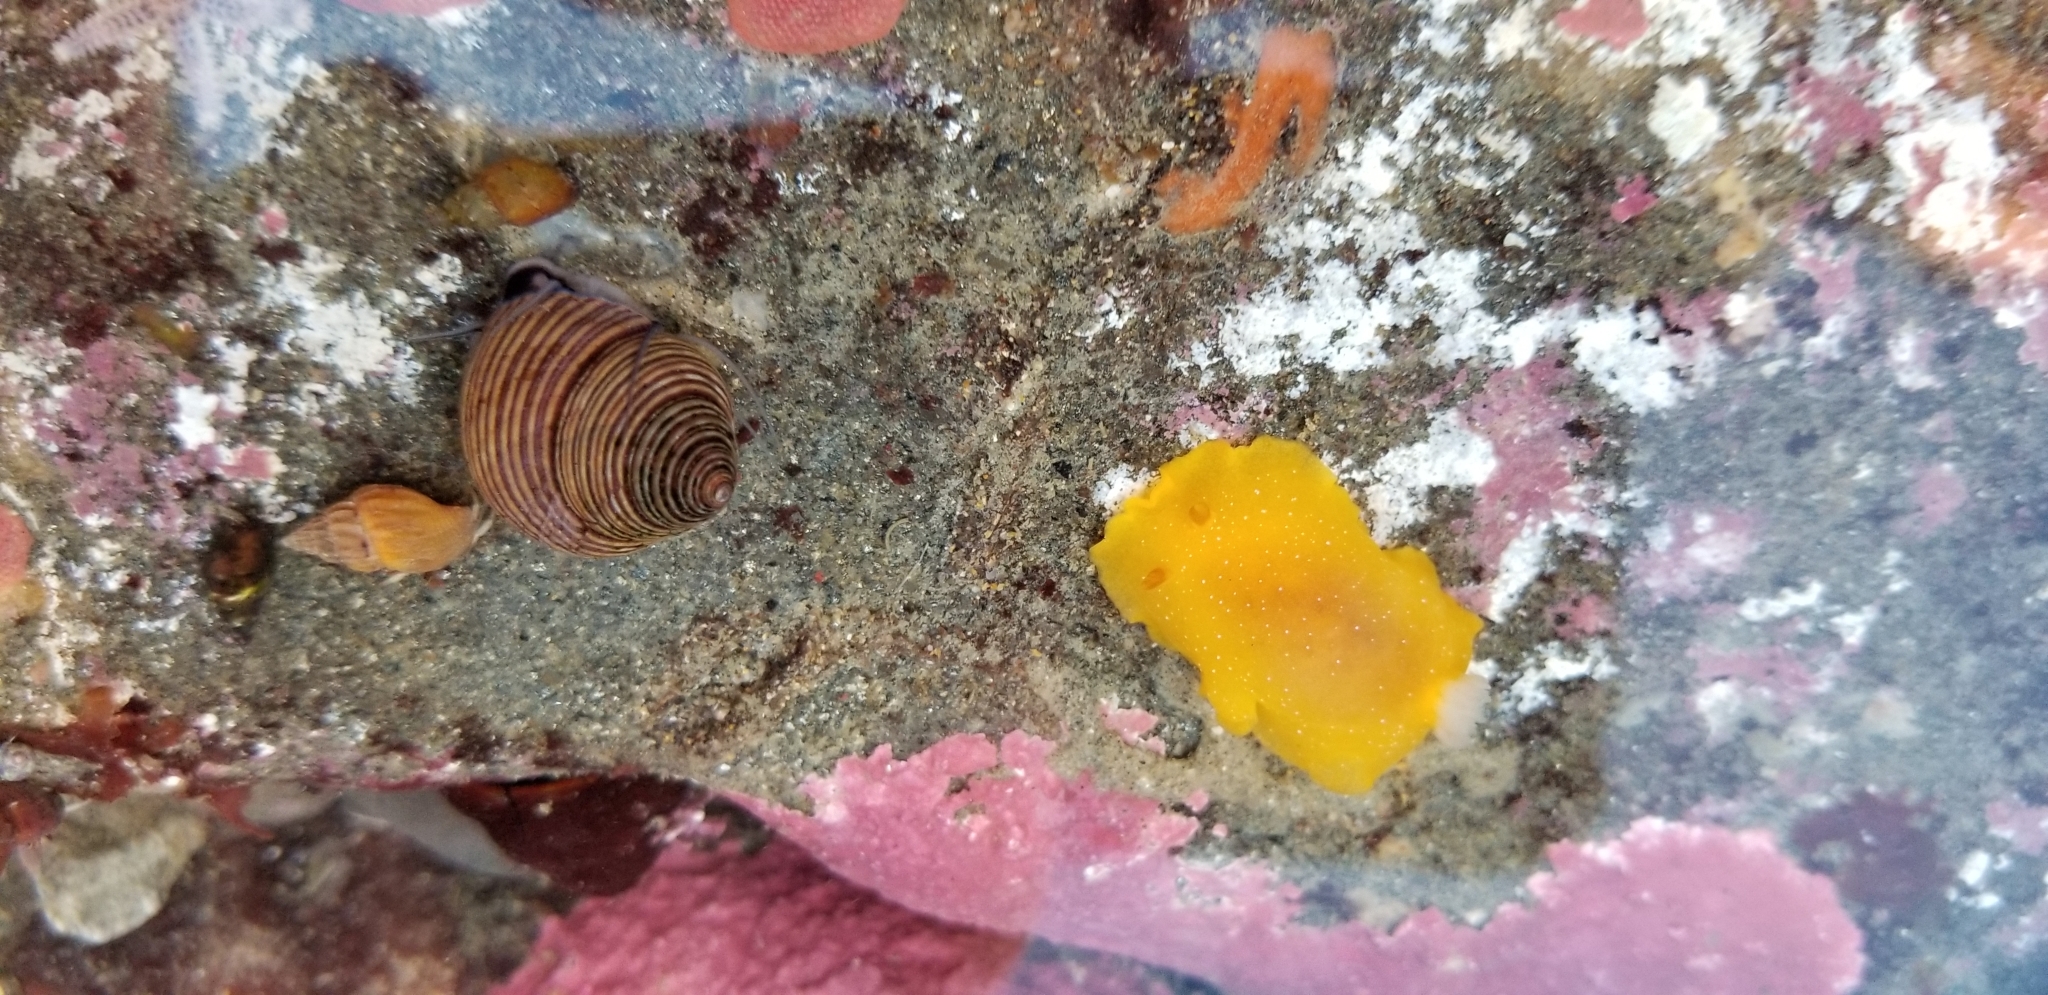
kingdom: Animalia
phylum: Mollusca
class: Gastropoda
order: Nudibranchia
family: Dendrodorididae
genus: Doriopsilla
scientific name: Doriopsilla fulva
